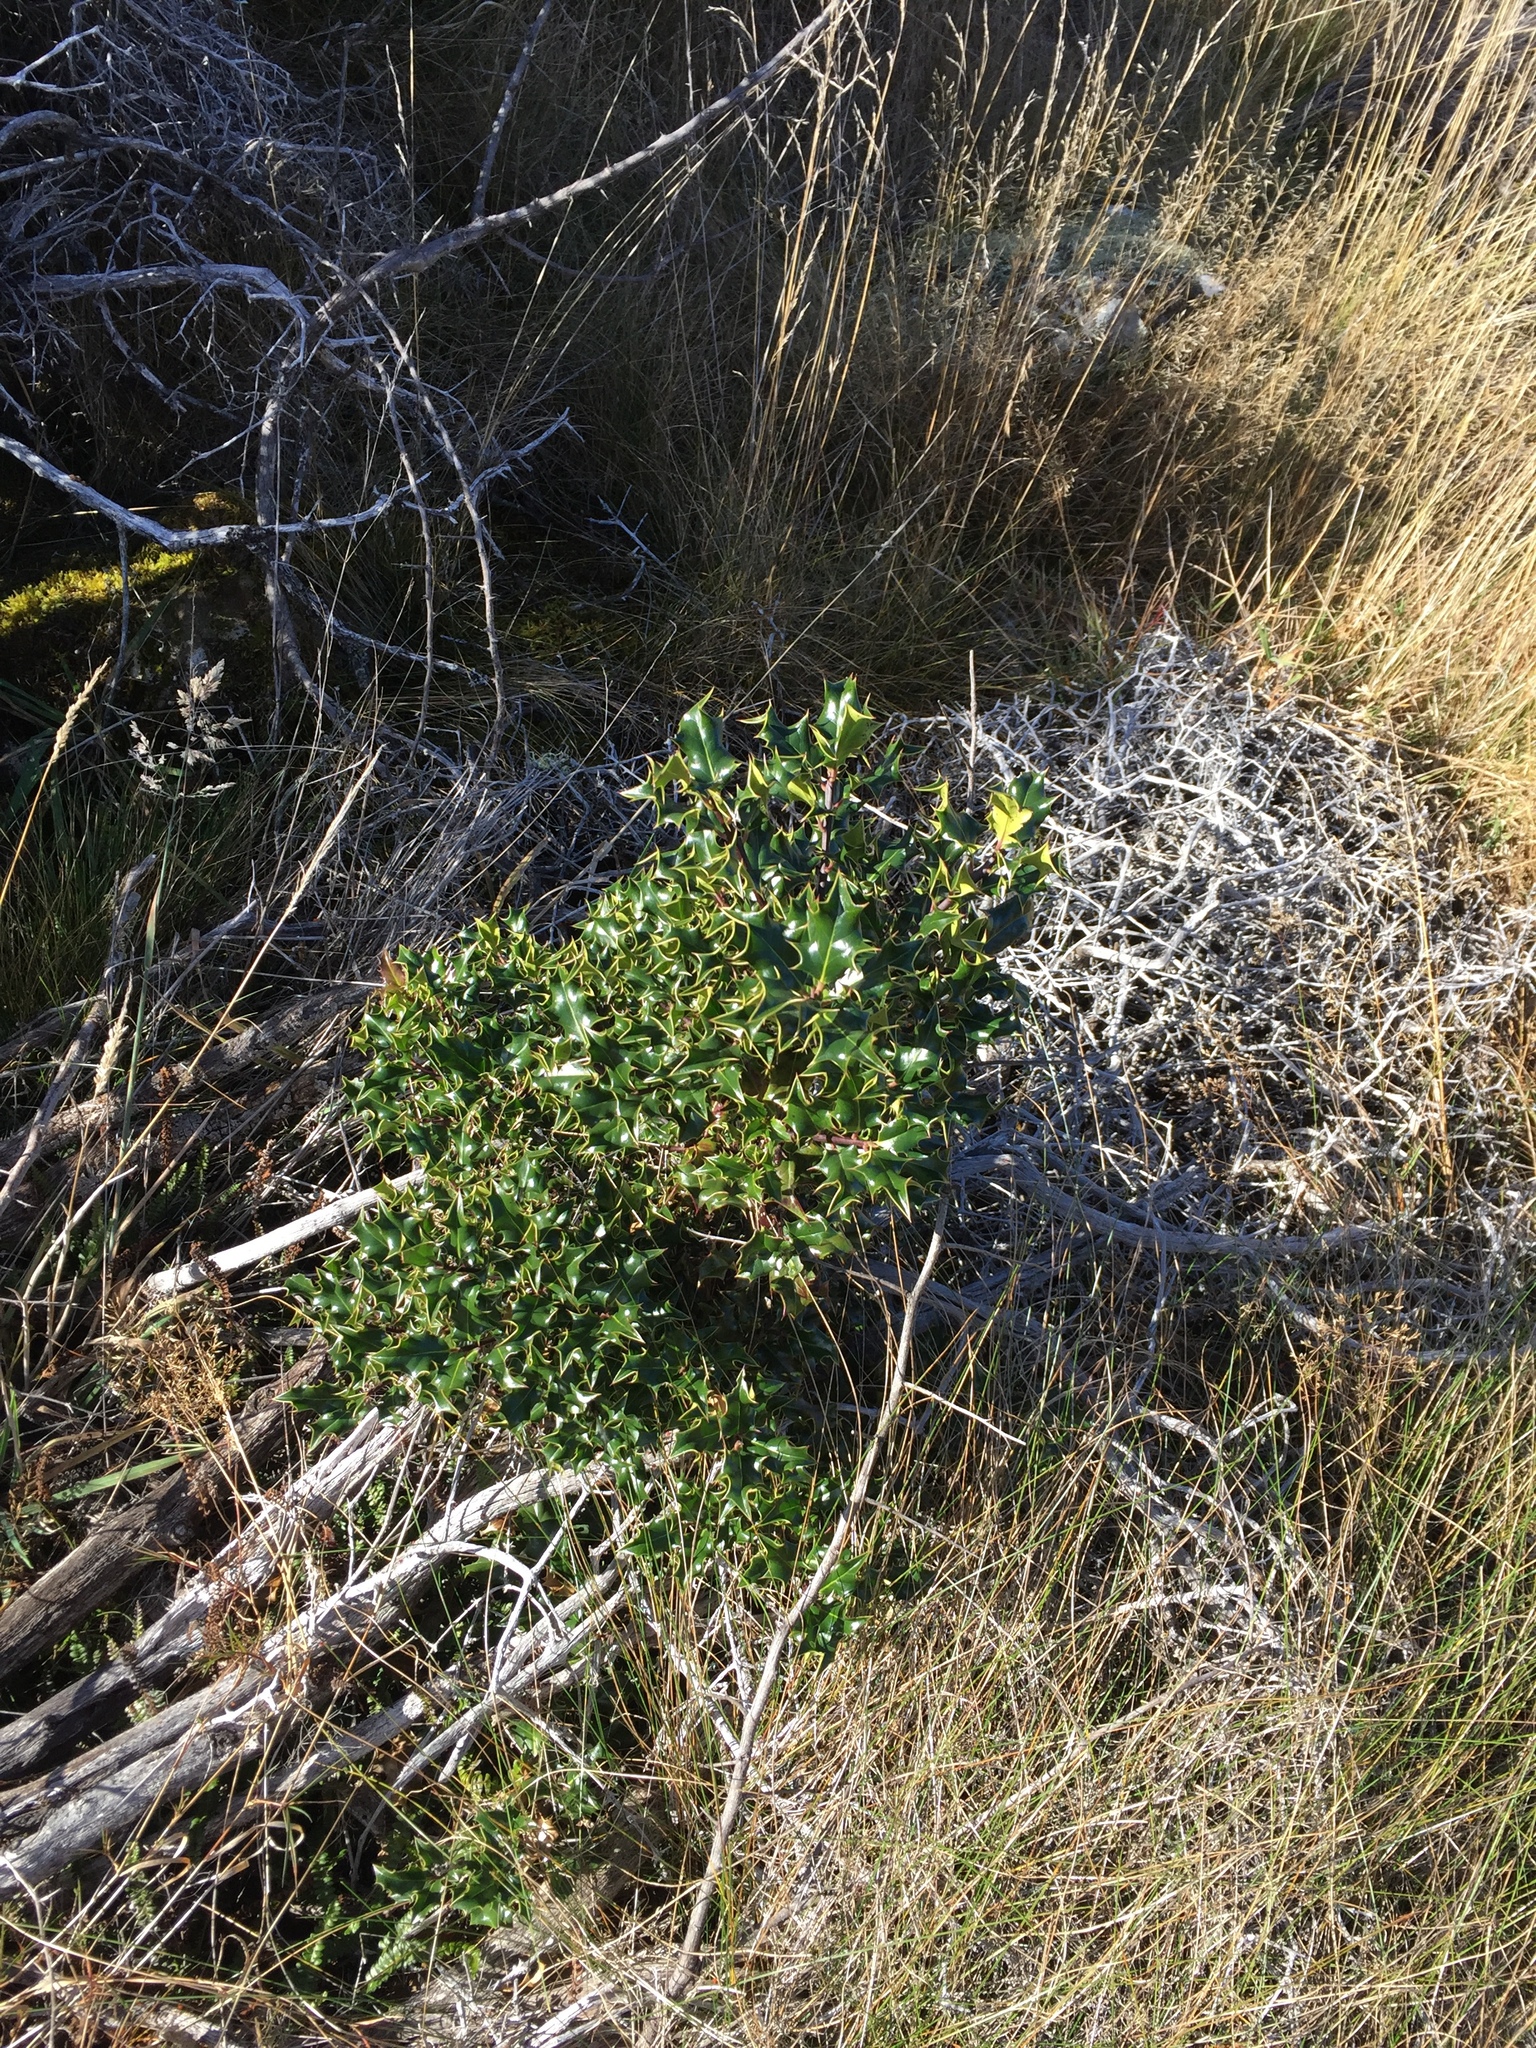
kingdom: Plantae
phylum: Tracheophyta
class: Magnoliopsida
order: Aquifoliales
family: Aquifoliaceae
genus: Ilex
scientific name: Ilex aquifolium
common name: English holly
